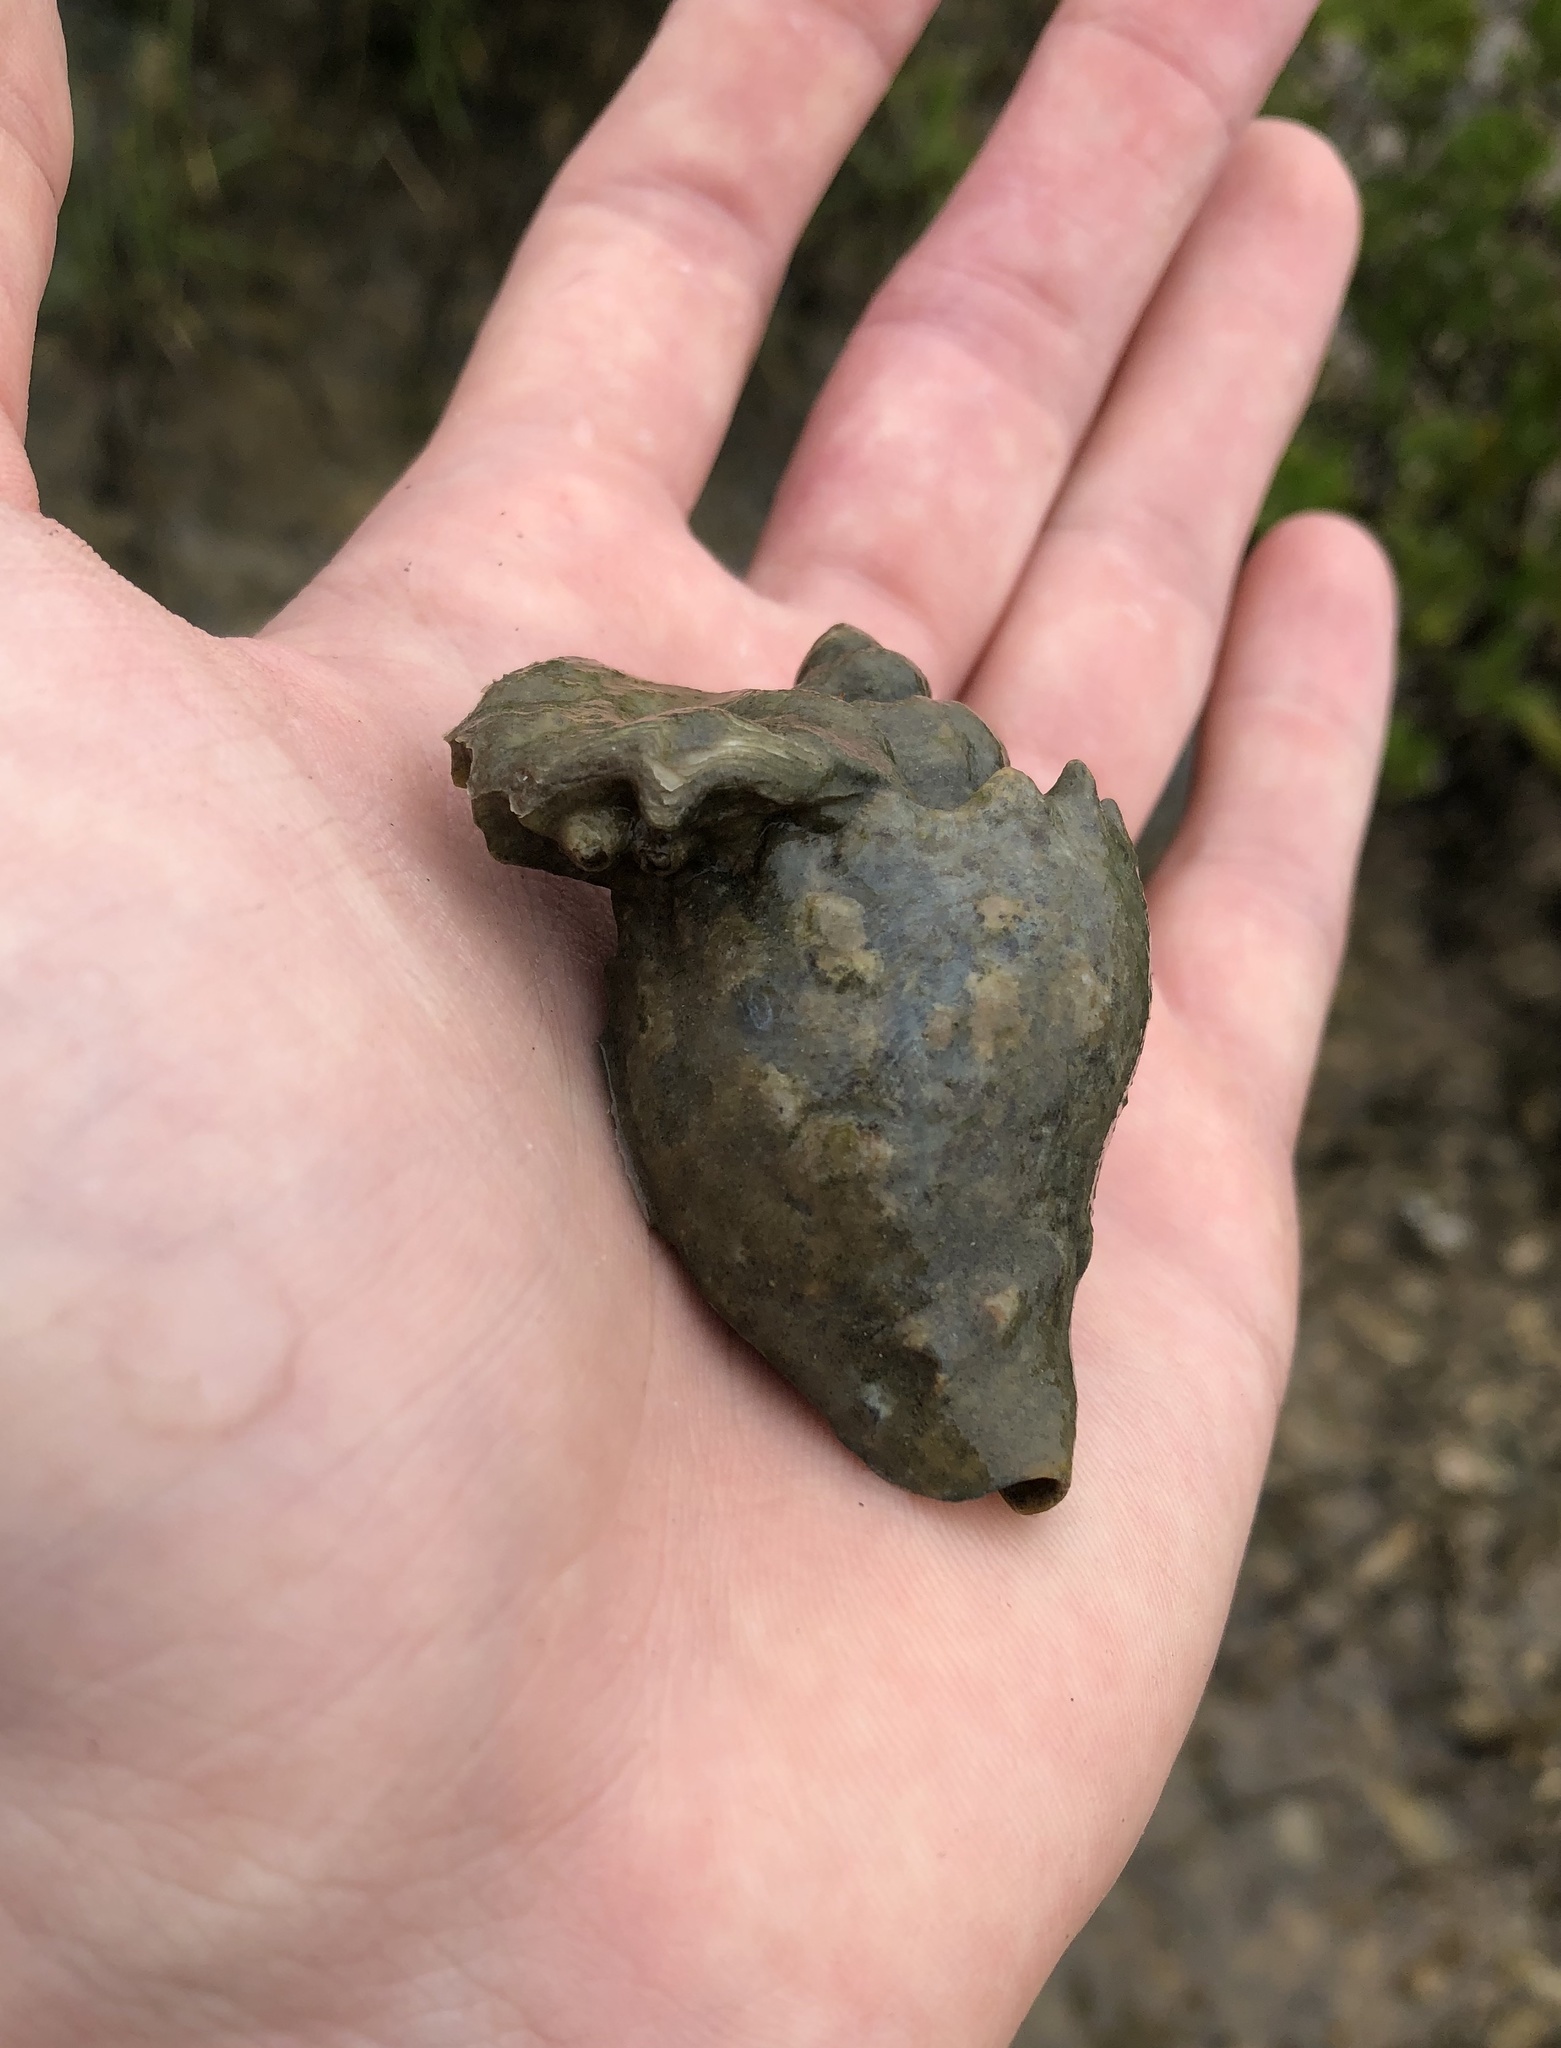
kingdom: Animalia
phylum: Mollusca
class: Gastropoda
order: Neogastropoda
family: Melongenidae
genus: Melongena
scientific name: Melongena corona
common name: American crown conch
